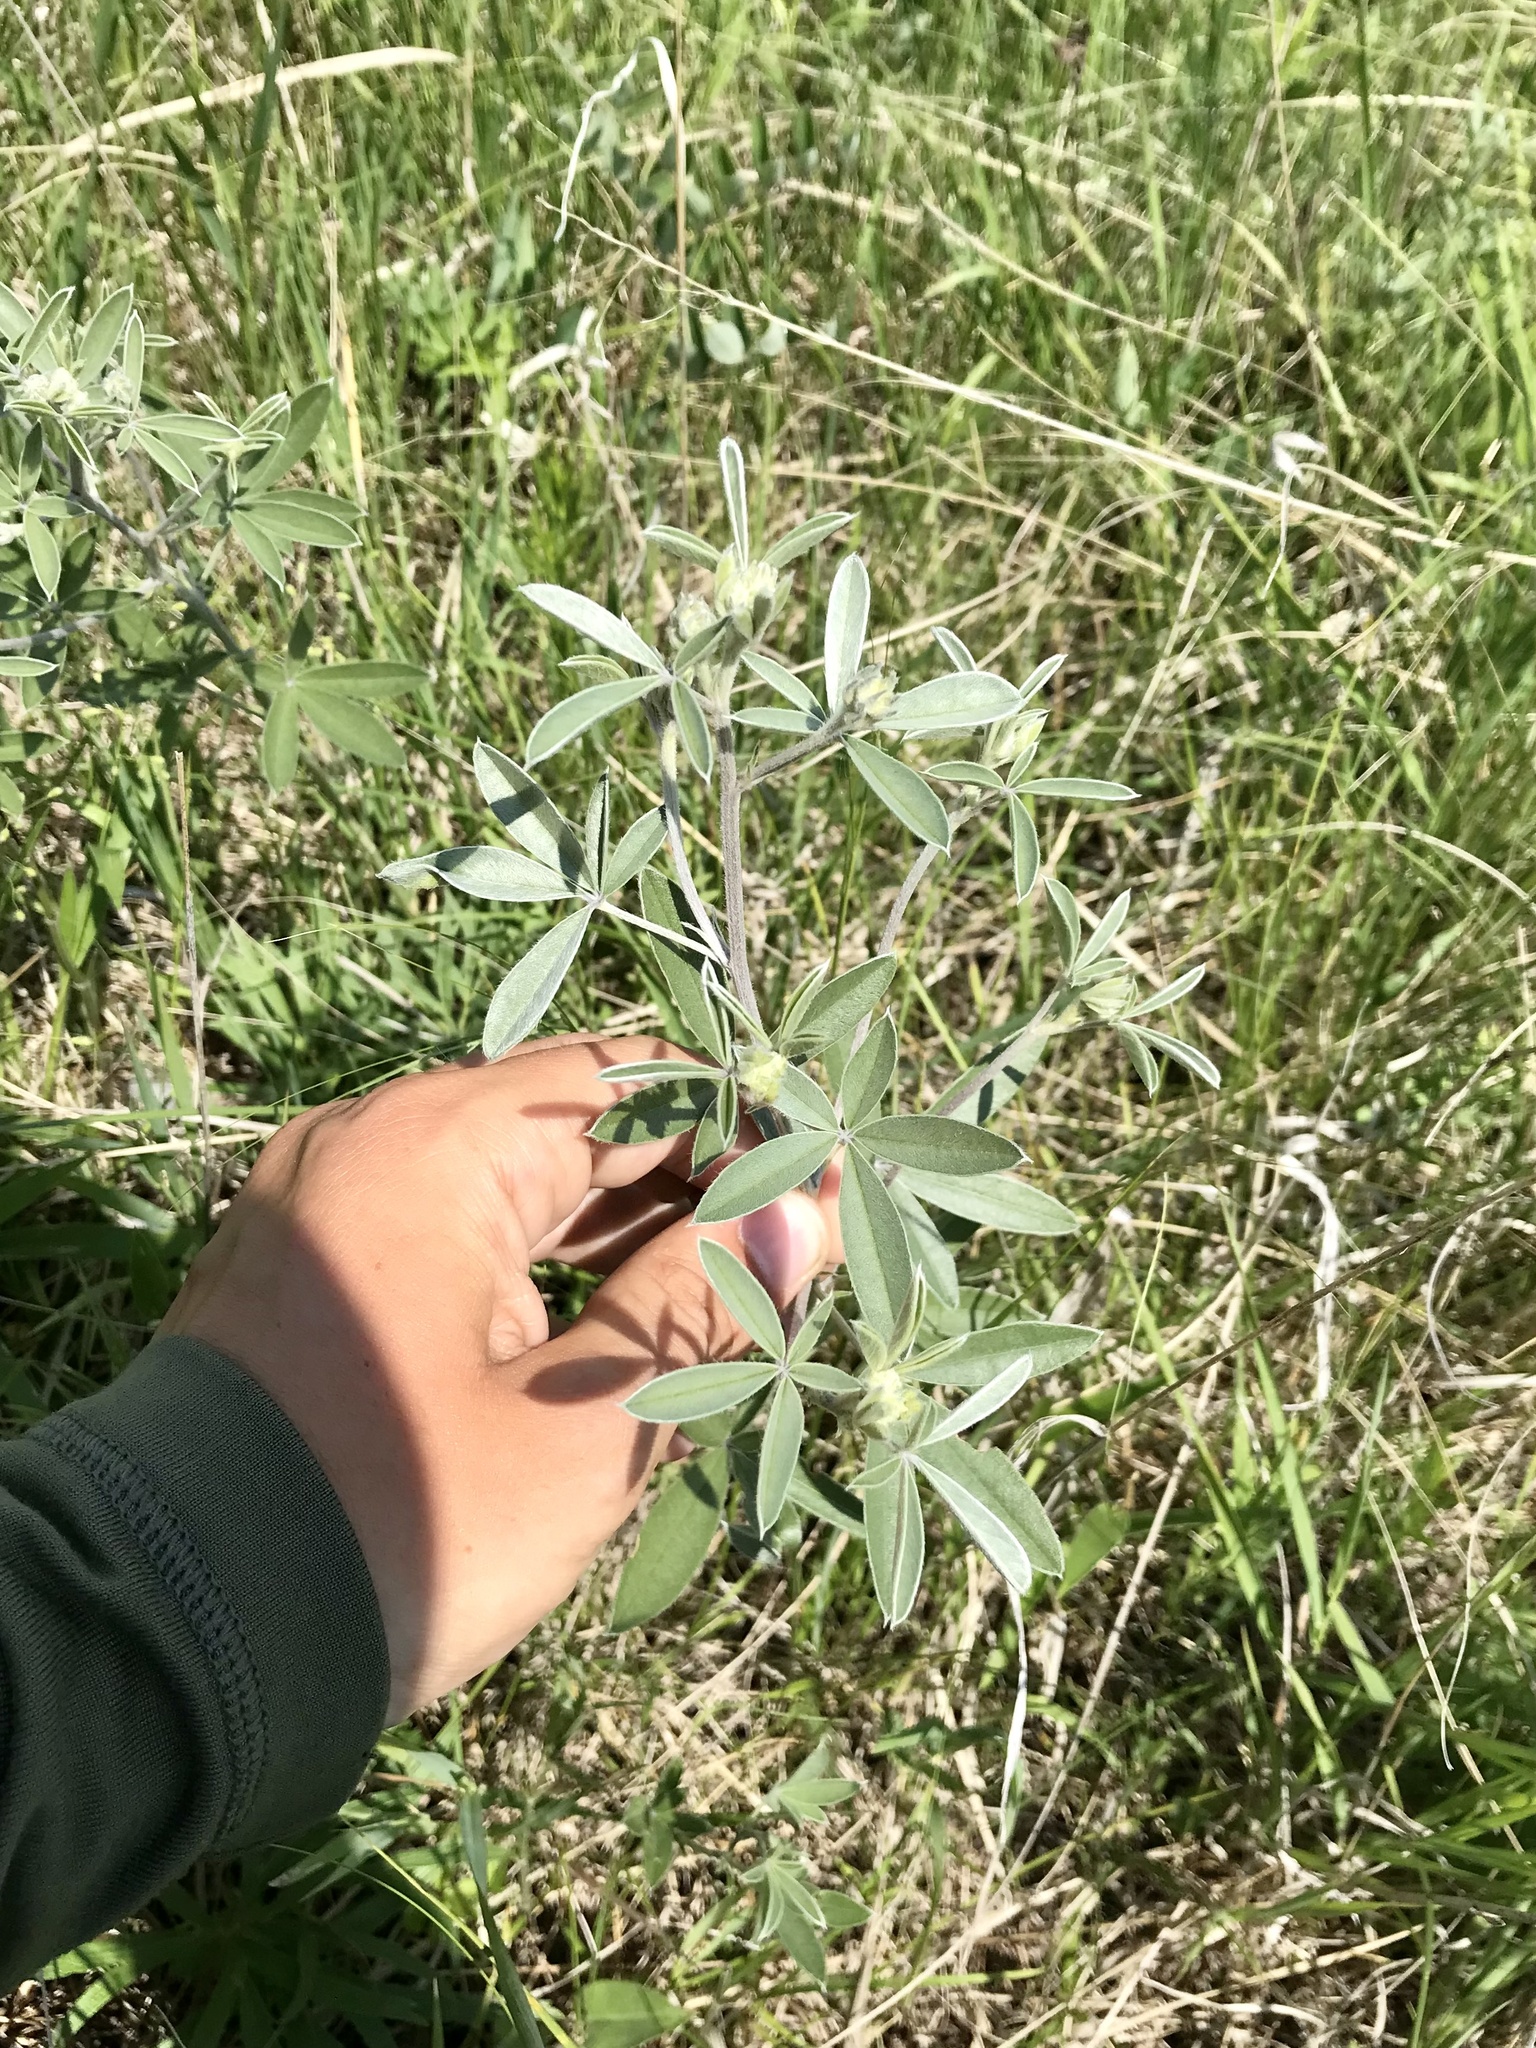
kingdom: Plantae
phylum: Tracheophyta
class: Magnoliopsida
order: Fabales
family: Fabaceae
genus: Pediomelum
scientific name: Pediomelum argophyllum
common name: Silver-leaved indian breadroot
